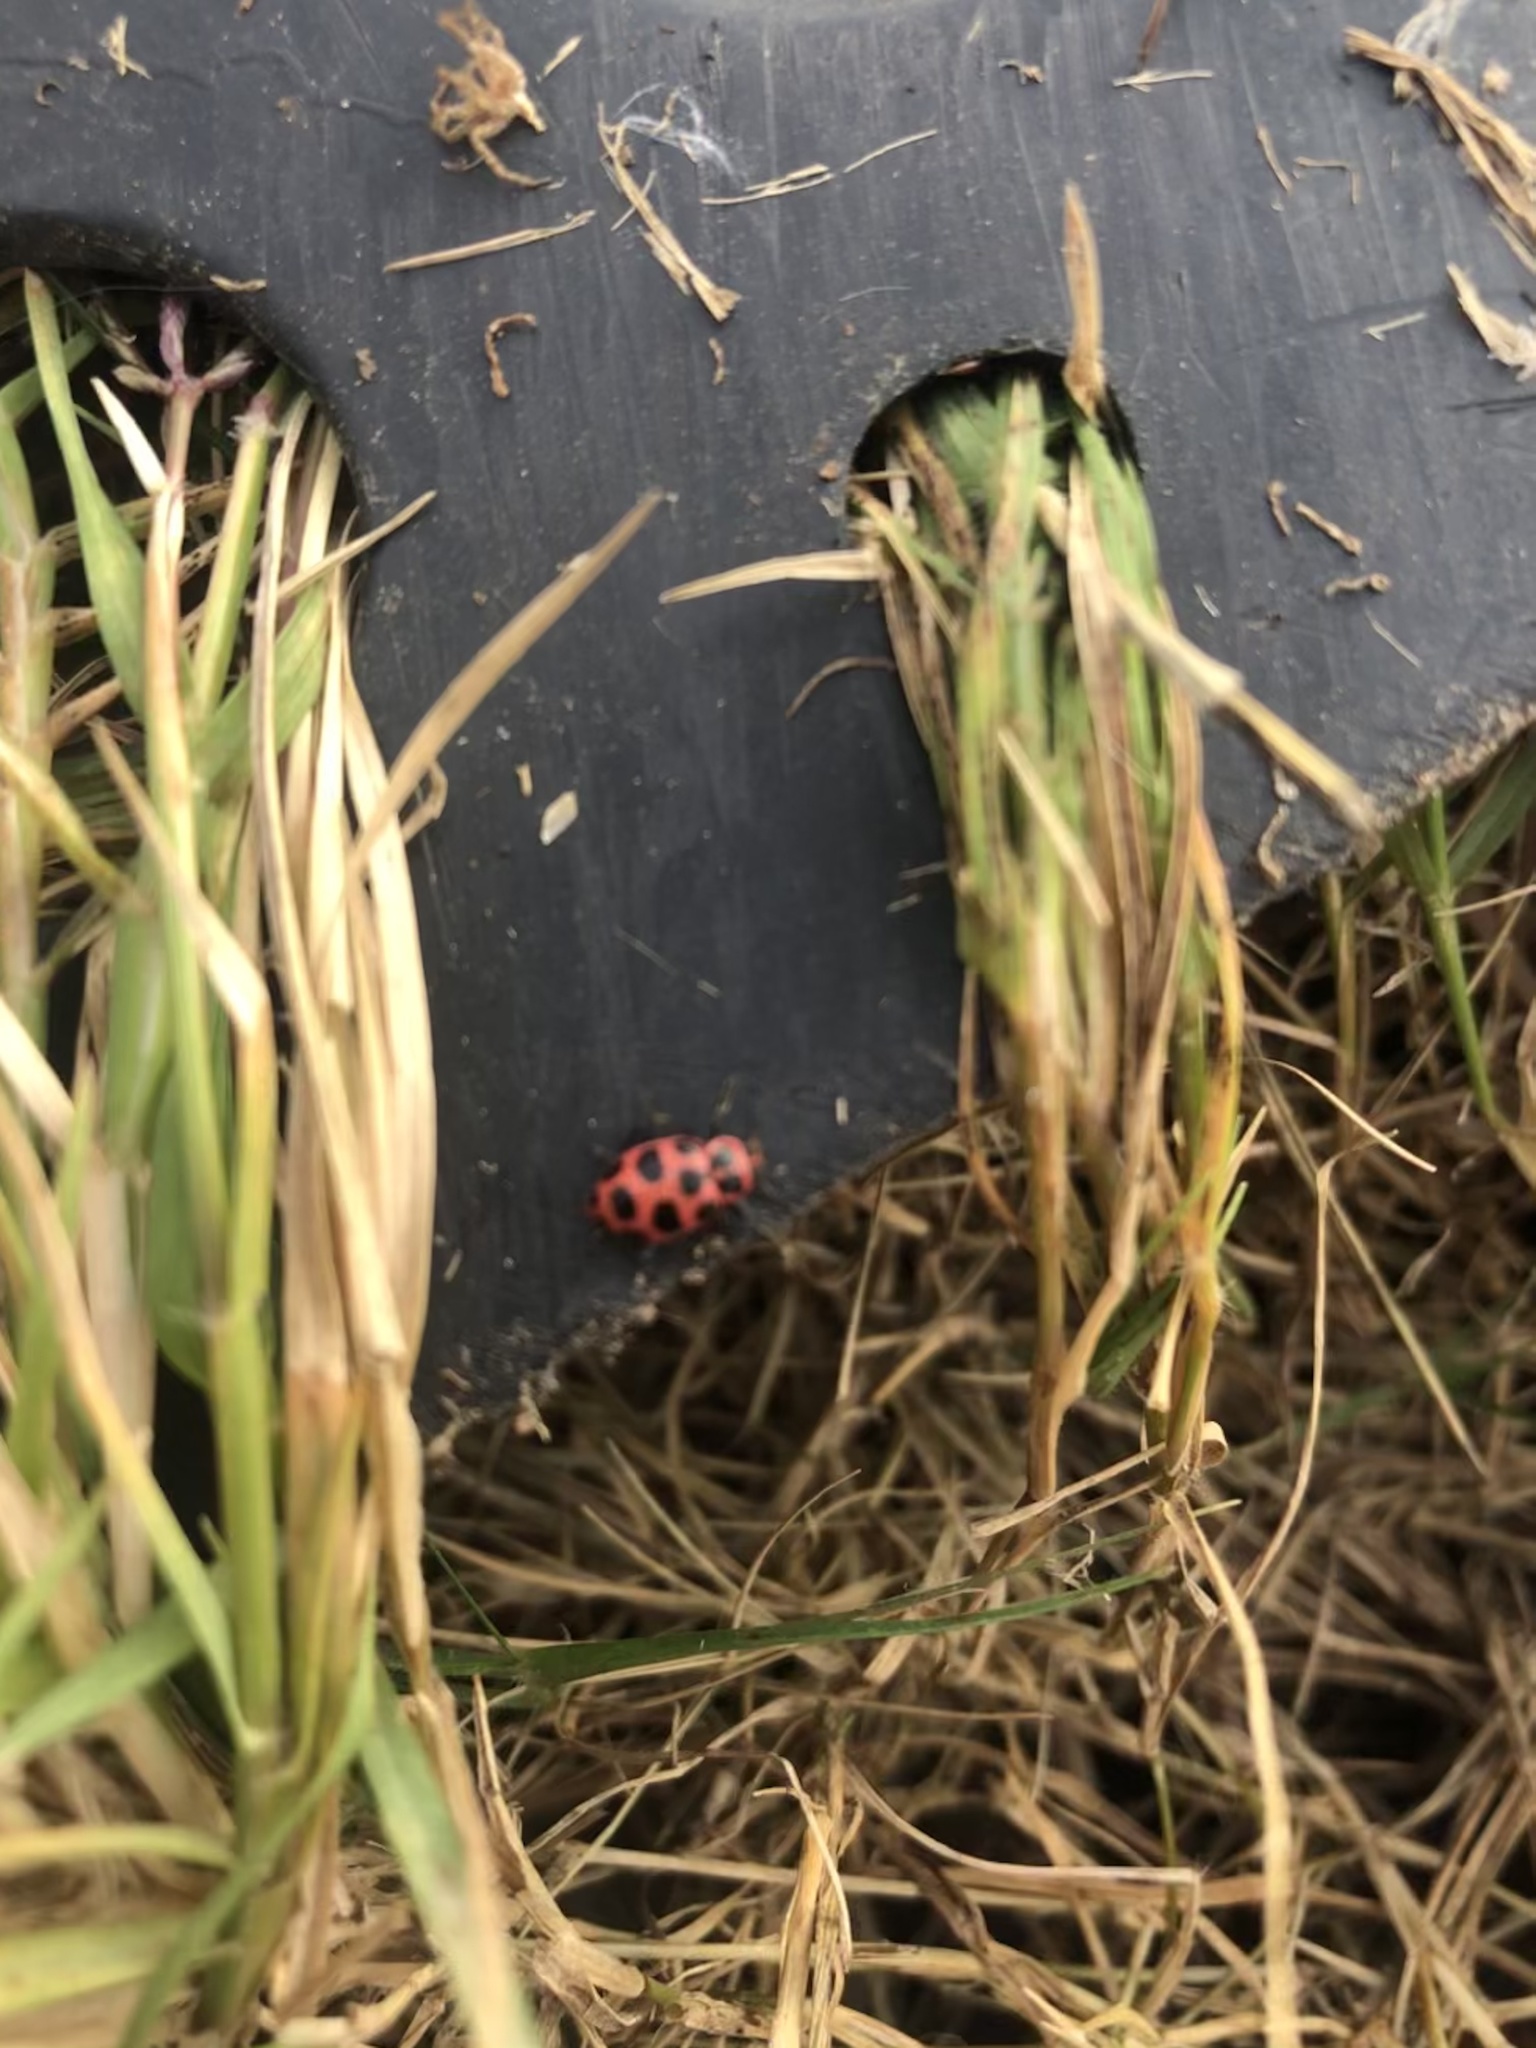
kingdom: Animalia
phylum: Arthropoda
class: Insecta
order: Coleoptera
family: Coccinellidae
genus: Coleomegilla
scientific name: Coleomegilla maculata
